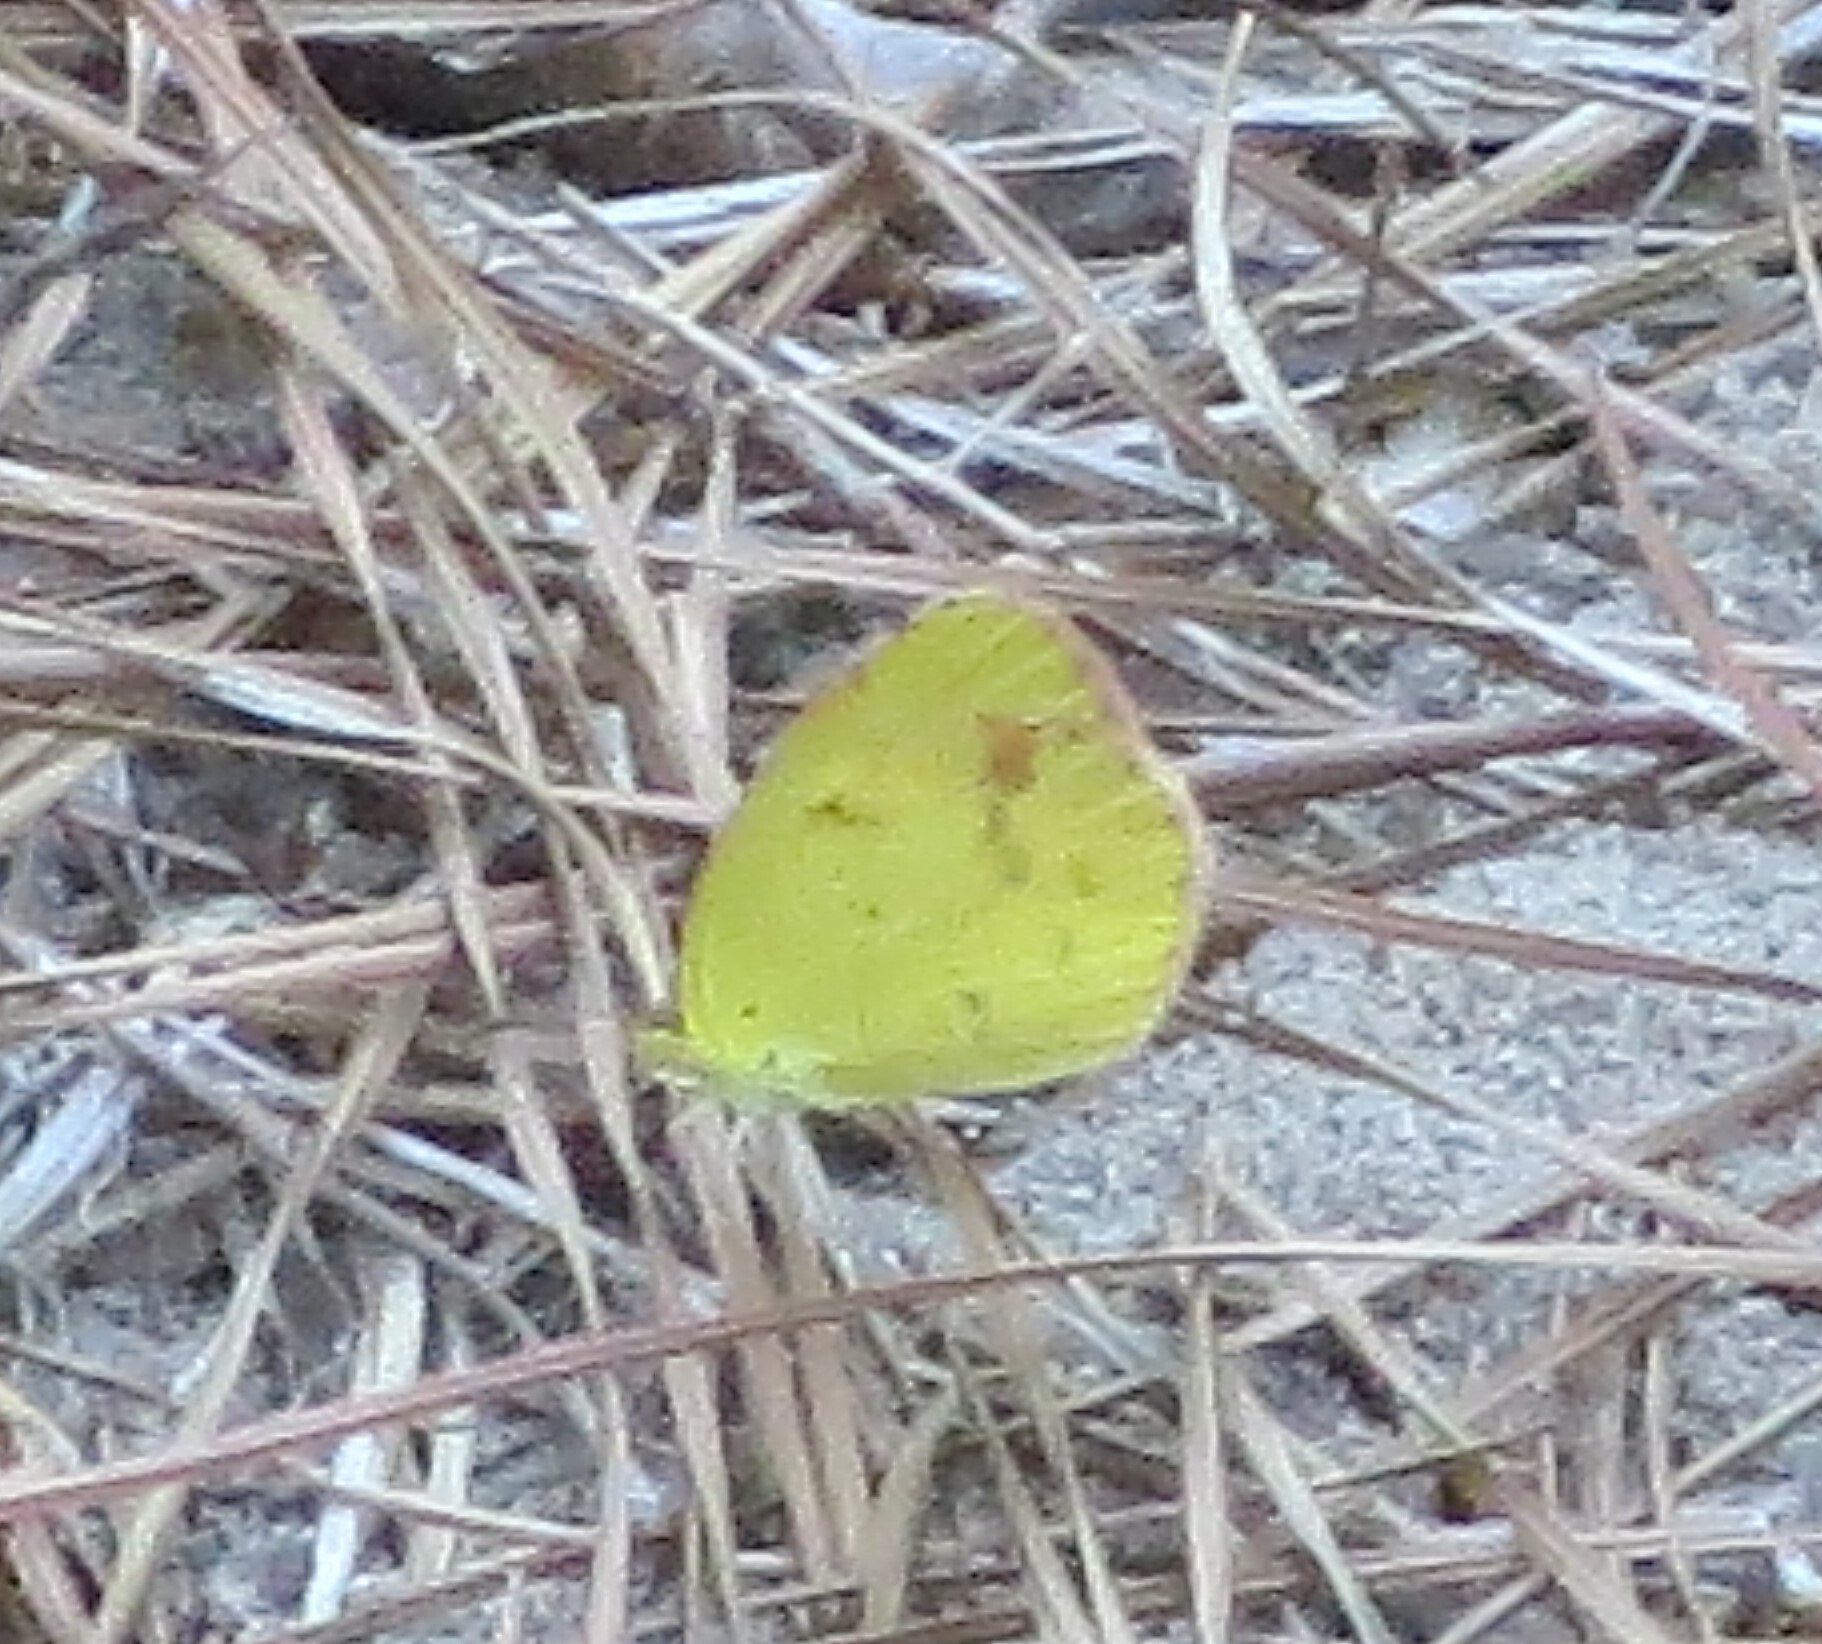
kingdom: Animalia
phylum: Arthropoda
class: Insecta
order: Lepidoptera
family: Pieridae
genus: Pyrisitia
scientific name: Pyrisitia lisa
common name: Little yellow
